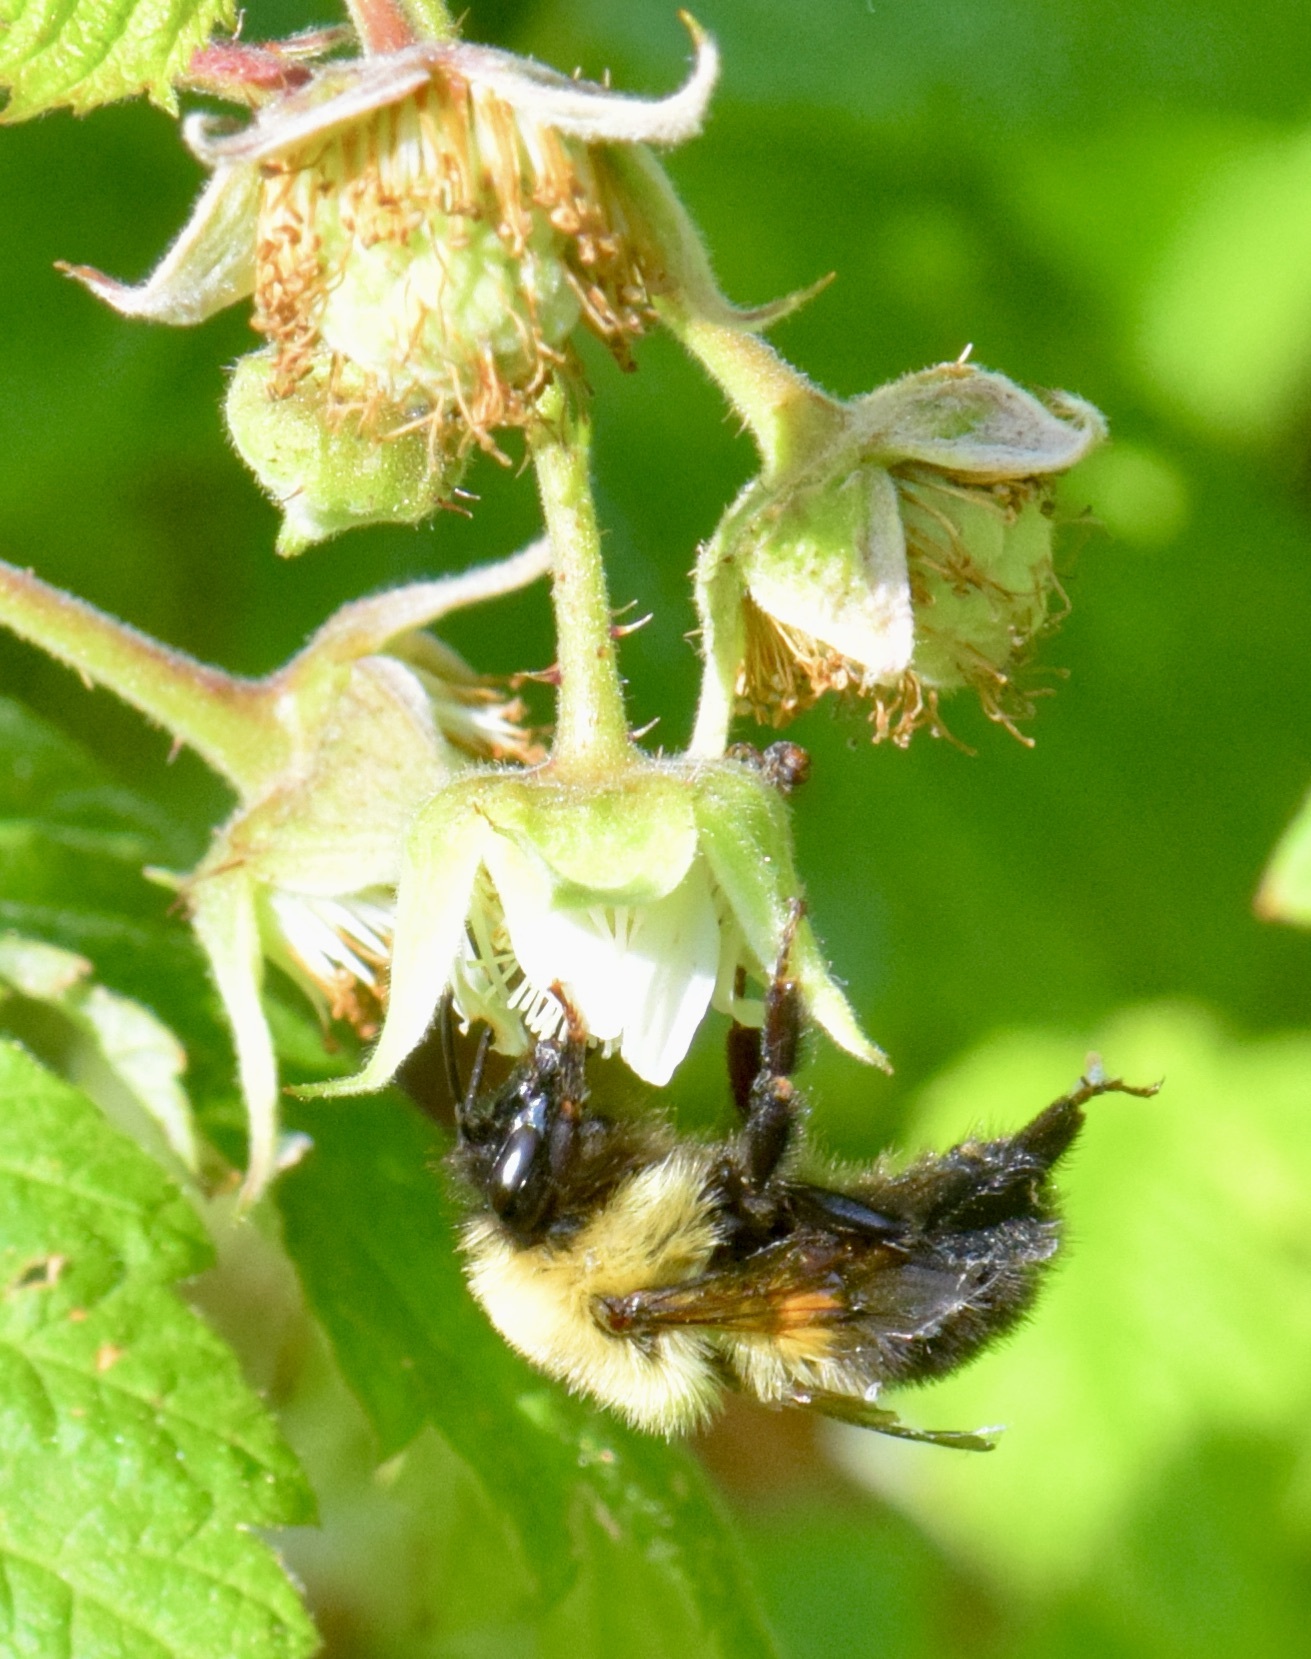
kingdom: Animalia
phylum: Arthropoda
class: Insecta
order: Hymenoptera
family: Apidae
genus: Bombus
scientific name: Bombus bimaculatus
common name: Two-spotted bumble bee
